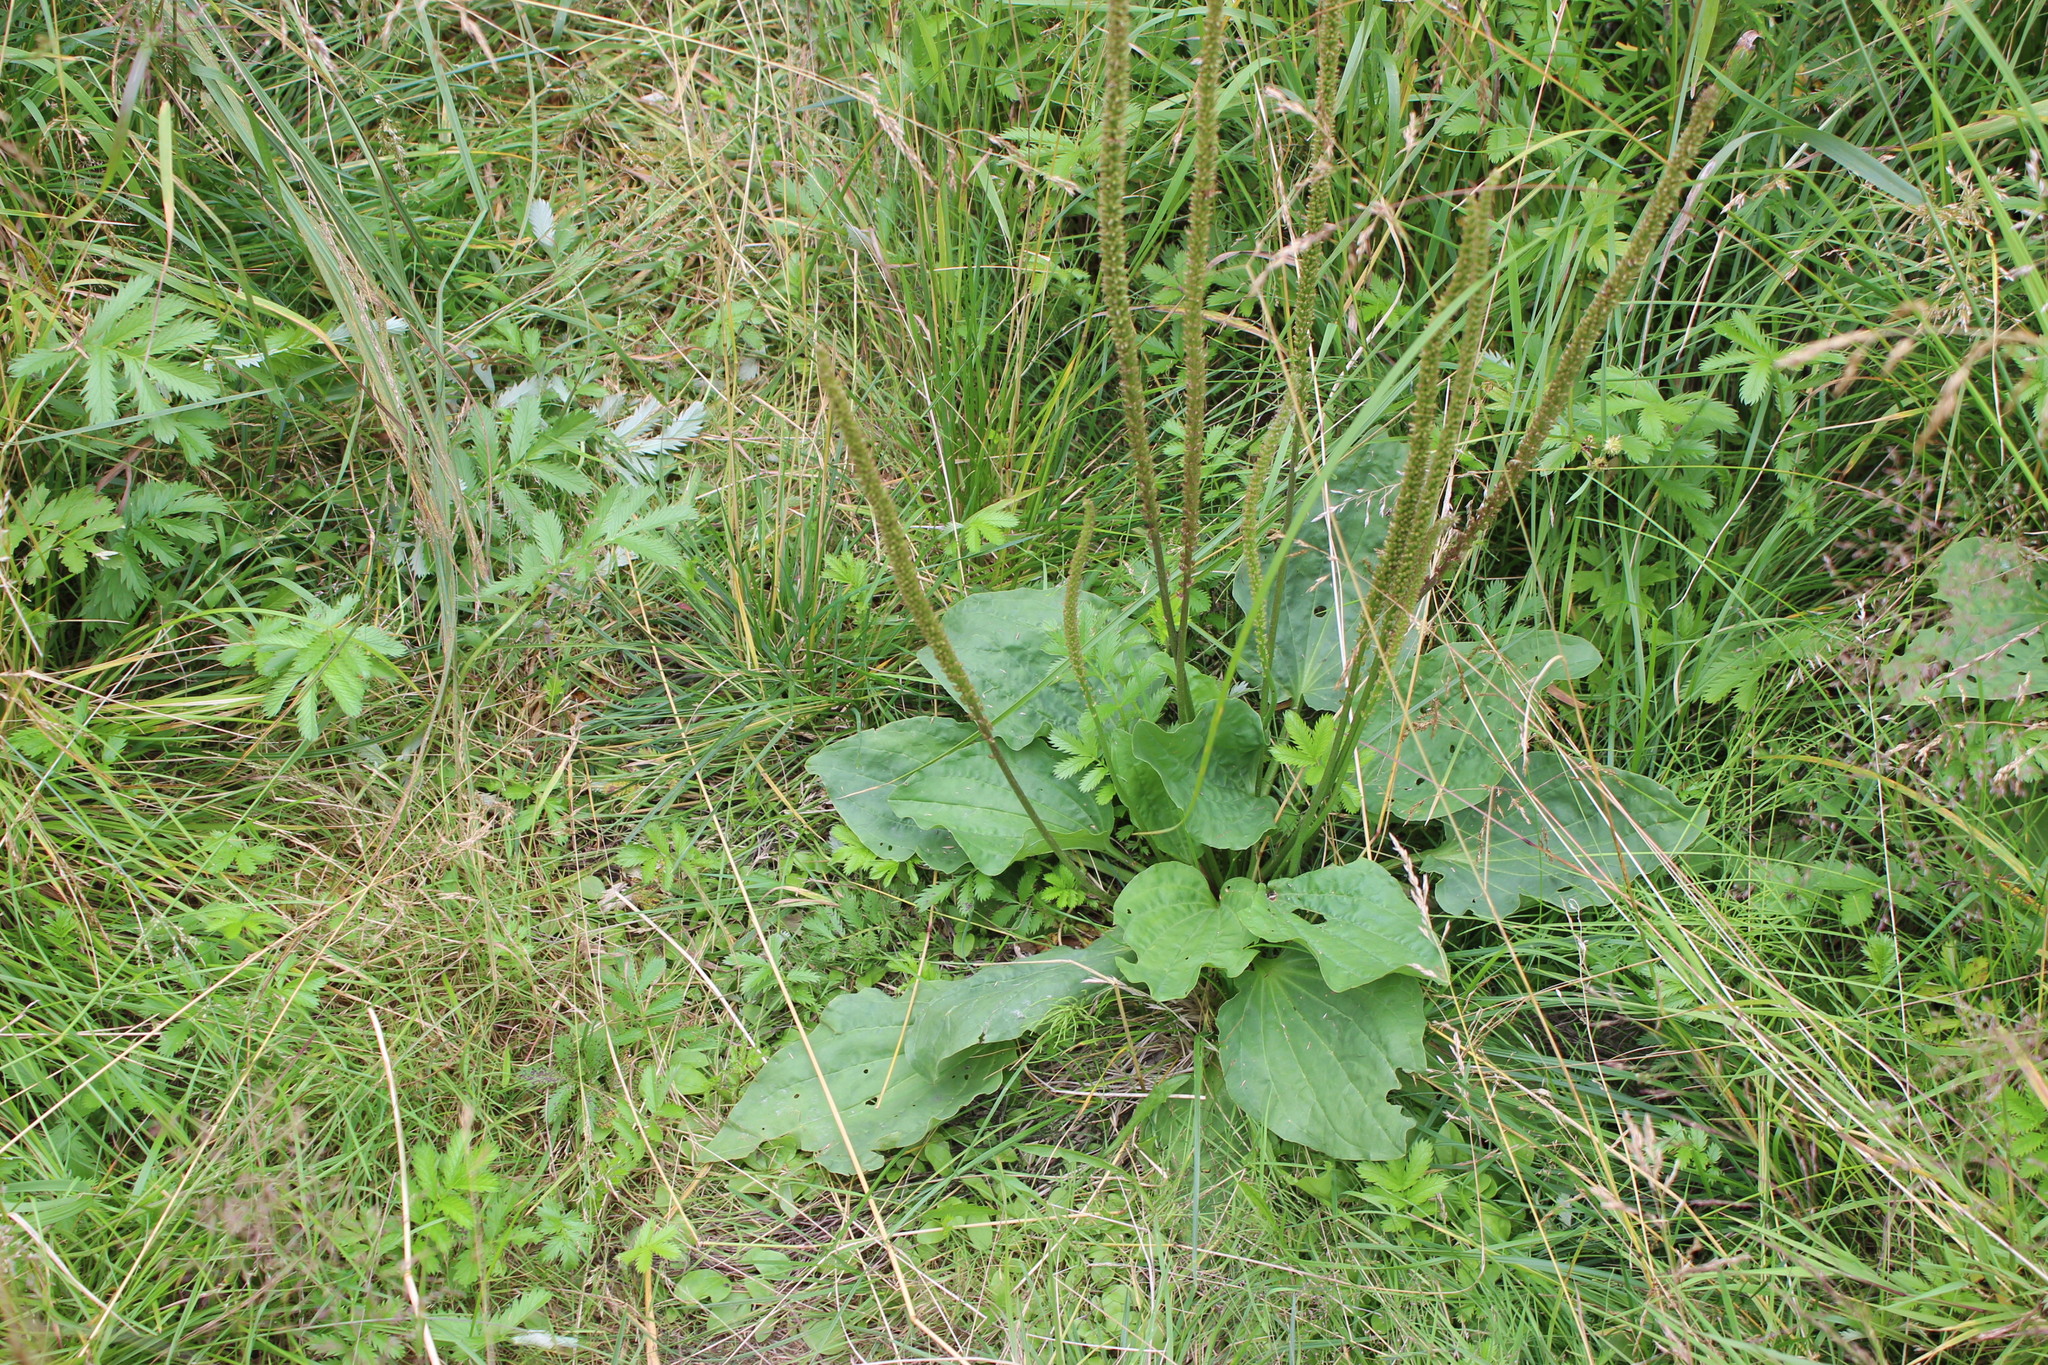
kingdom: Plantae
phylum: Tracheophyta
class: Magnoliopsida
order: Lamiales
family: Plantaginaceae
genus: Plantago
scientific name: Plantago major
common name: Common plantain
